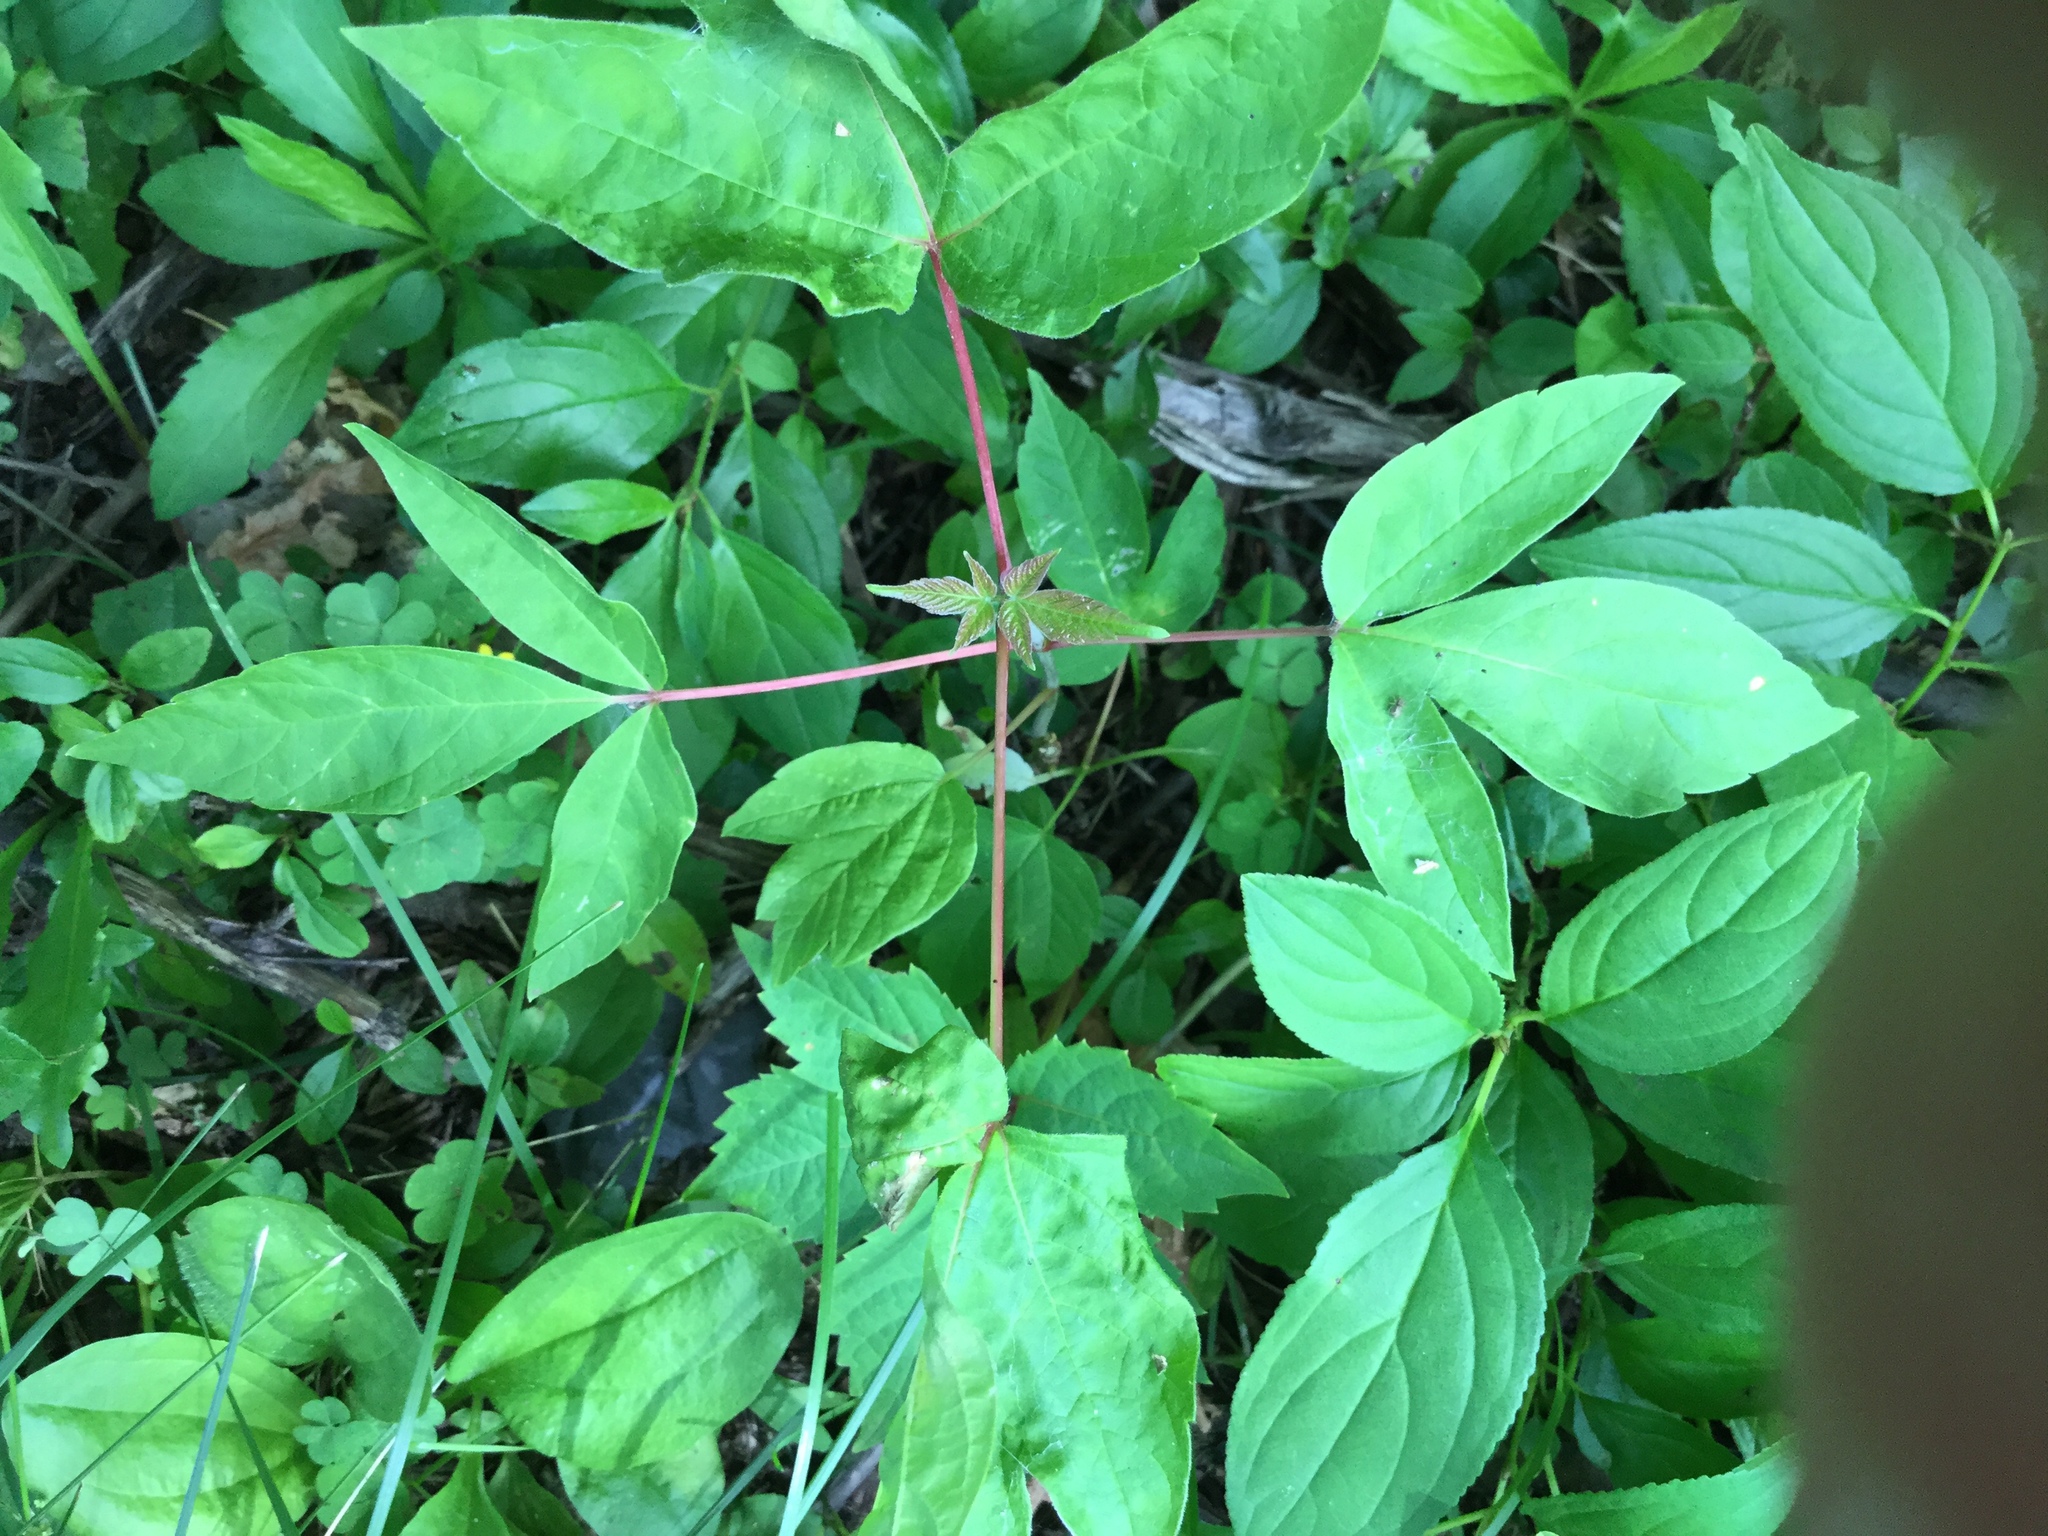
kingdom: Plantae
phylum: Tracheophyta
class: Magnoliopsida
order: Sapindales
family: Sapindaceae
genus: Acer
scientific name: Acer negundo
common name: Ashleaf maple
